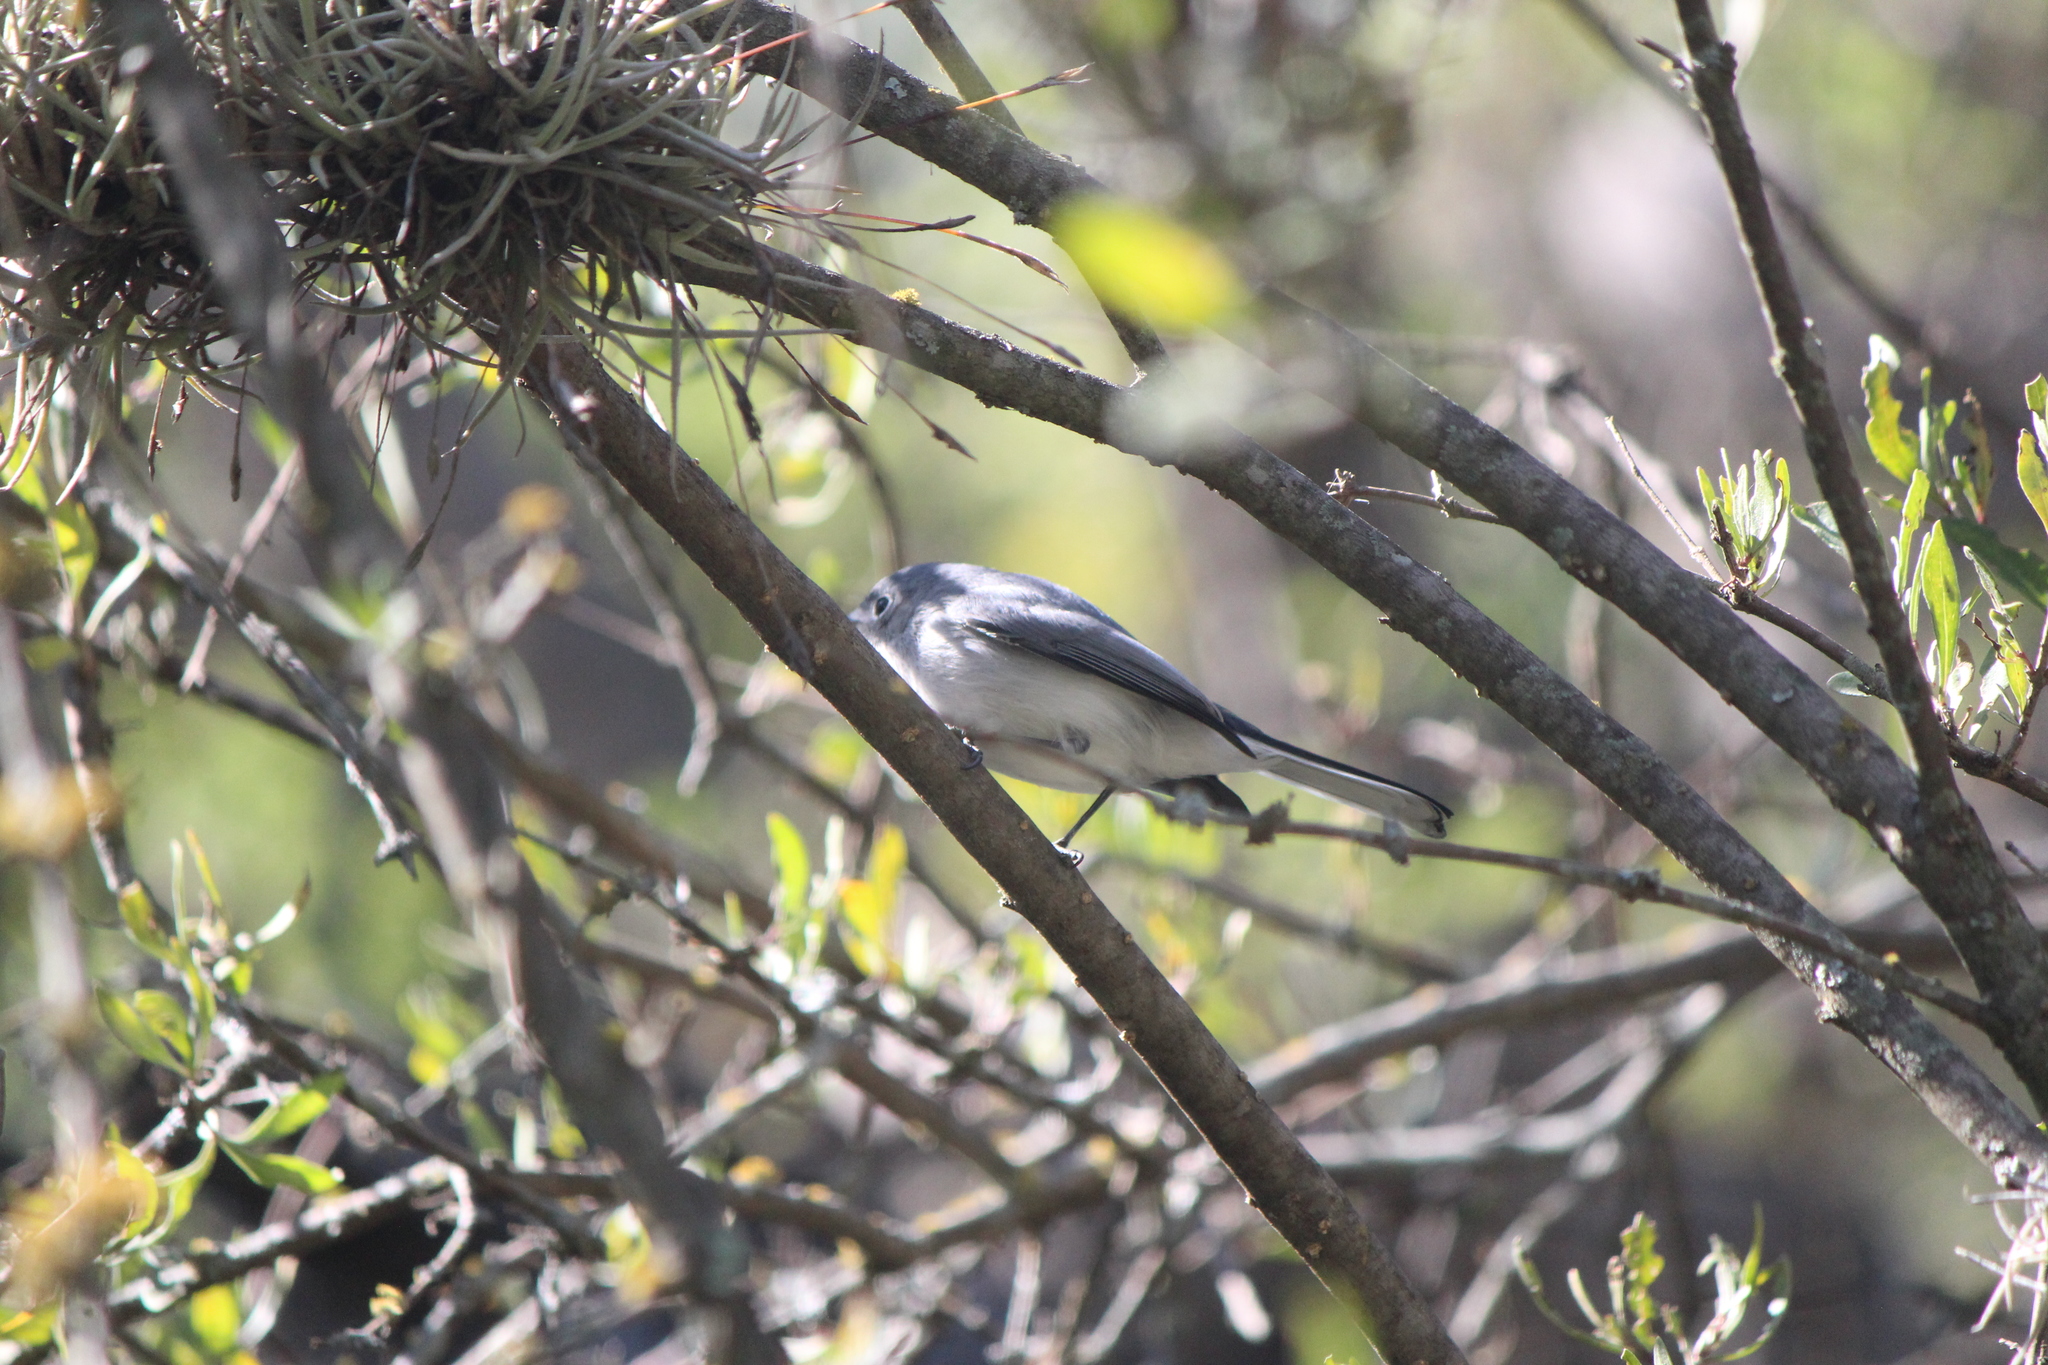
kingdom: Animalia
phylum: Chordata
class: Aves
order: Passeriformes
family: Polioptilidae
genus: Polioptila
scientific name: Polioptila caerulea
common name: Blue-gray gnatcatcher
